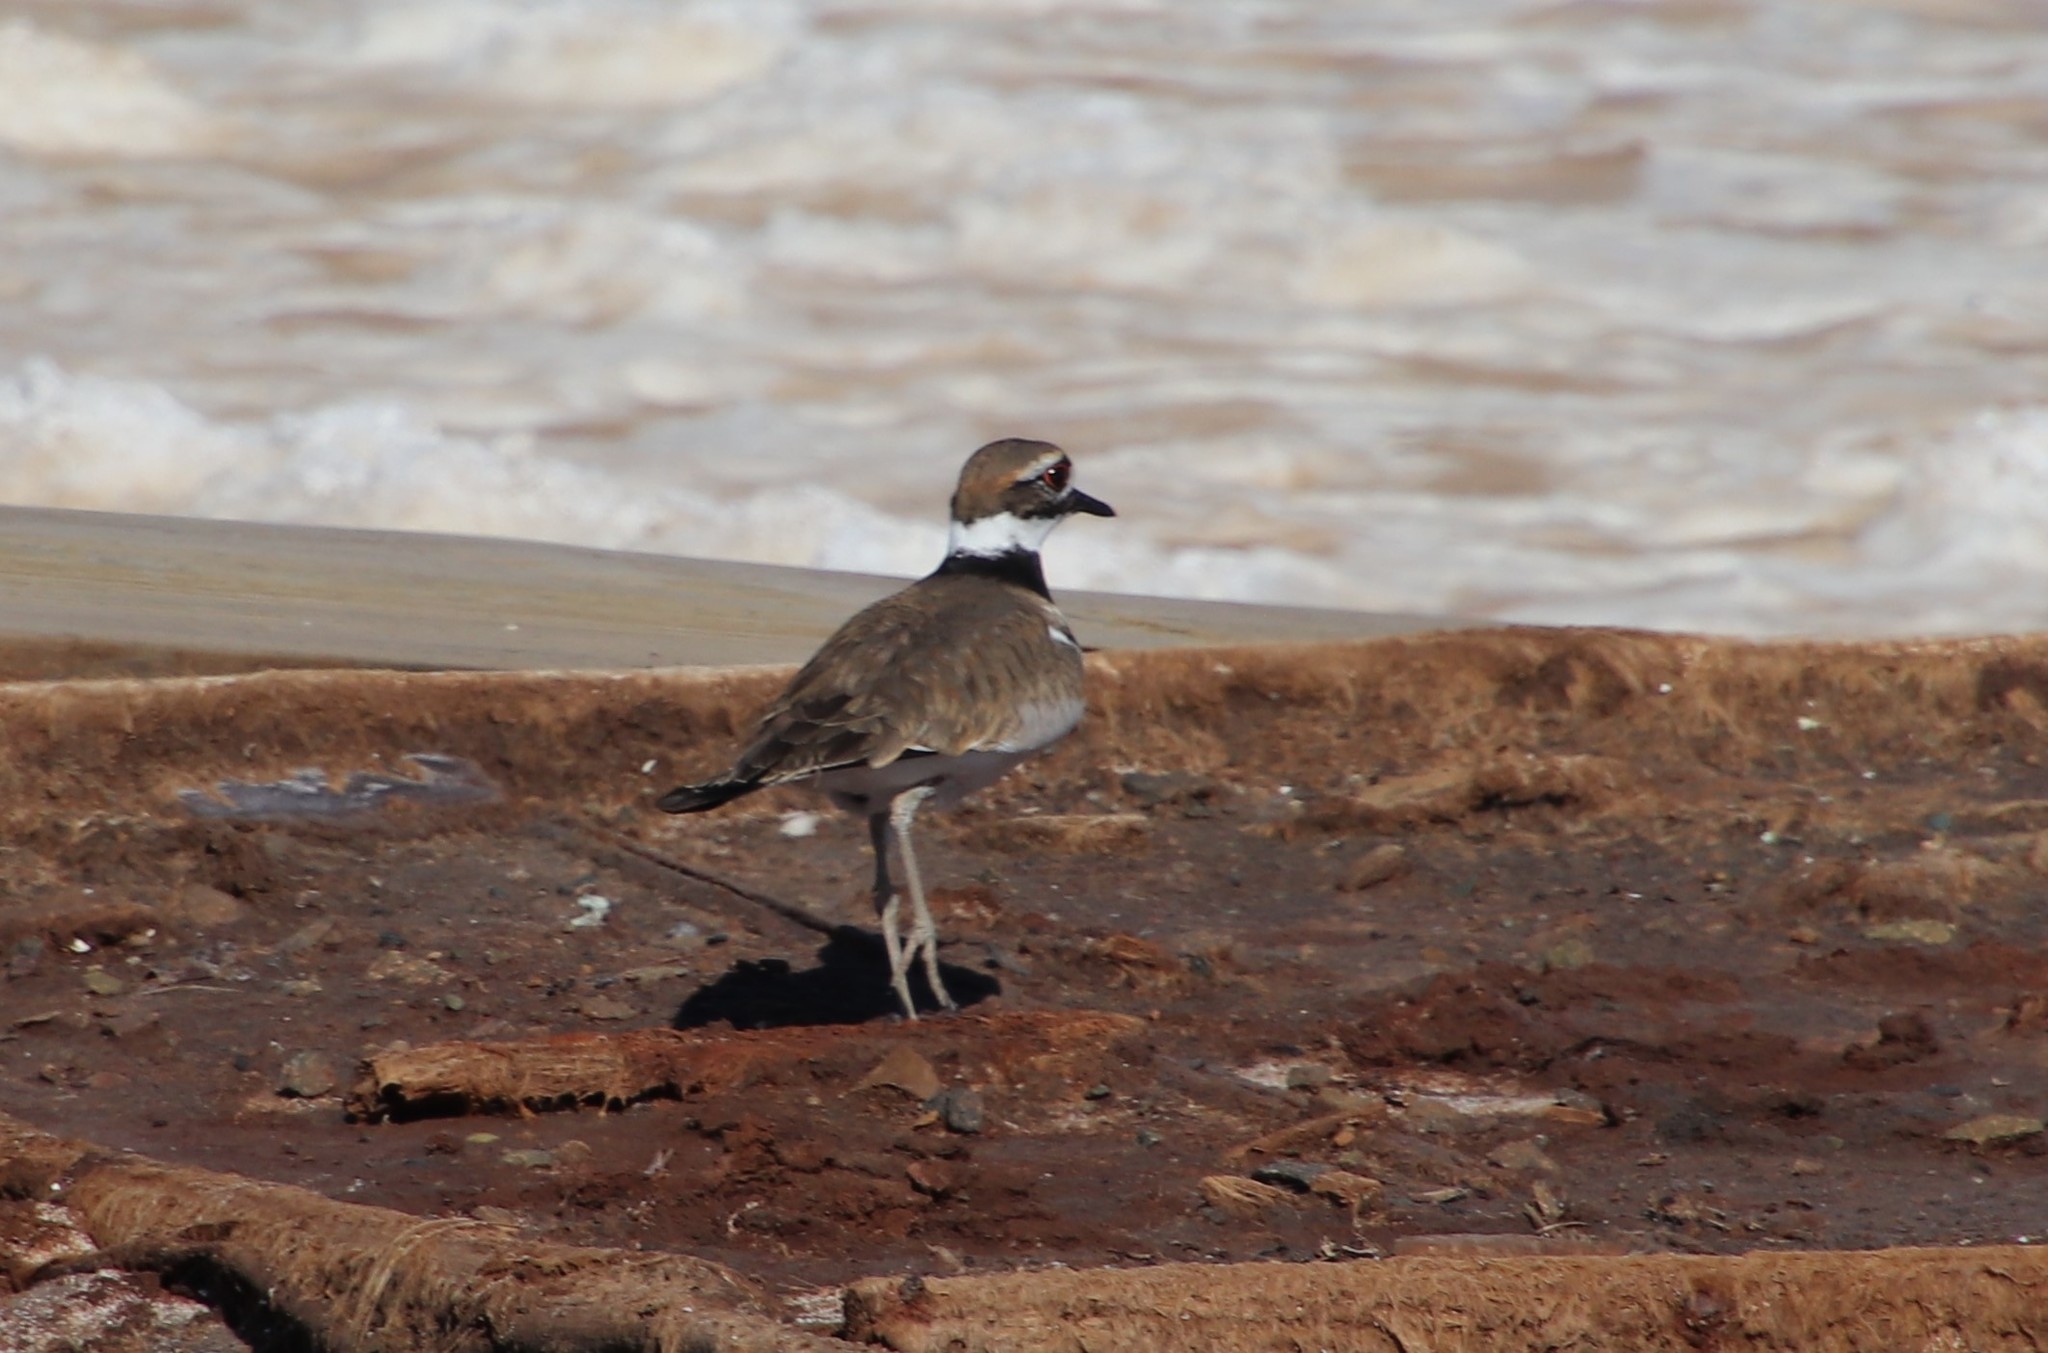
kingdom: Animalia
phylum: Chordata
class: Aves
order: Charadriiformes
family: Charadriidae
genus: Charadrius
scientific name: Charadrius vociferus
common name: Killdeer
